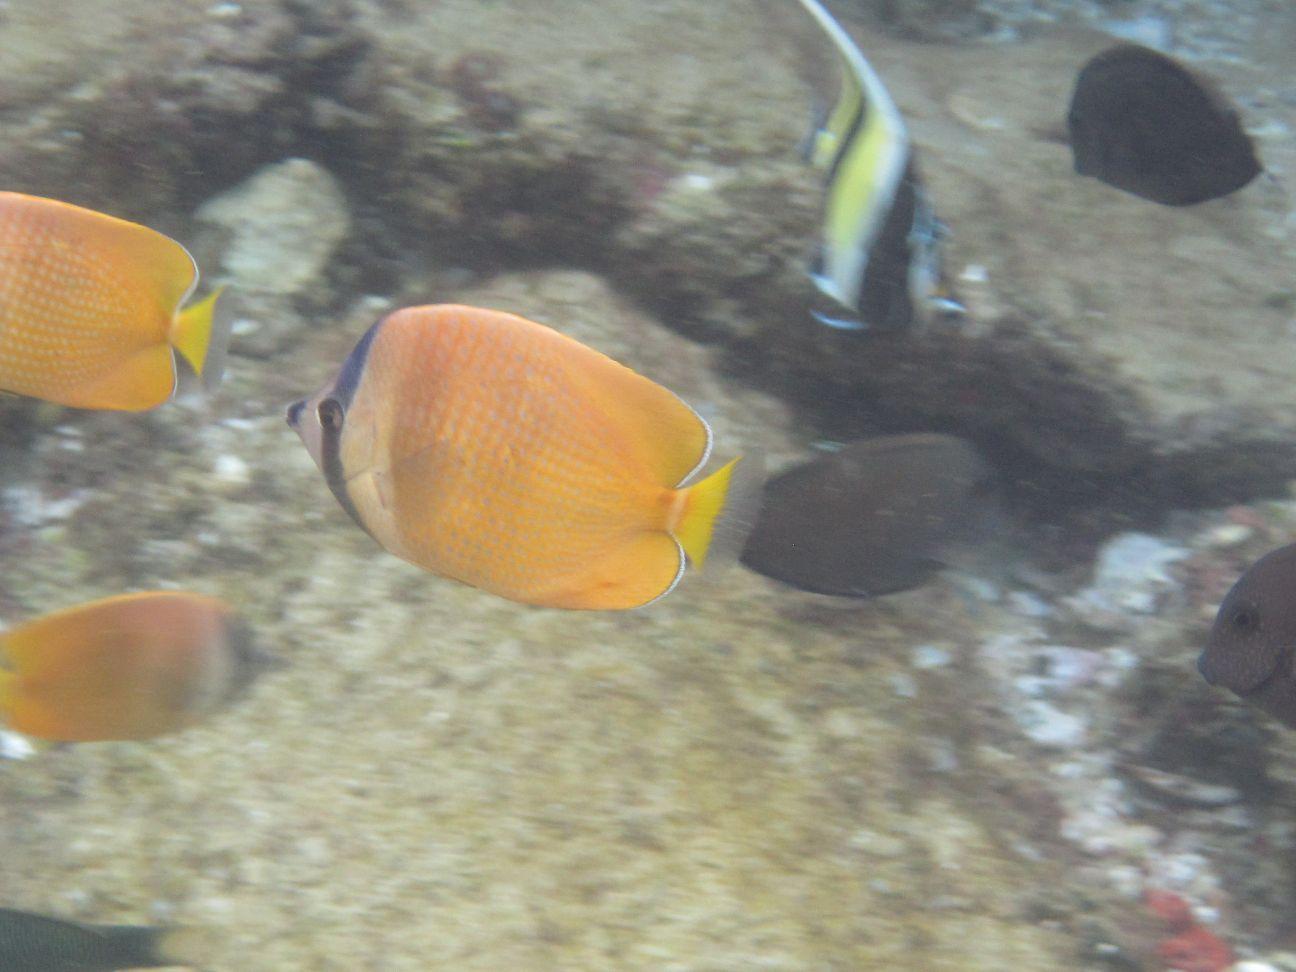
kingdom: Animalia
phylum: Chordata
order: Perciformes
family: Chaetodontidae
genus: Chaetodon
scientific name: Chaetodon kleinii
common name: Klein's butterflyfish
